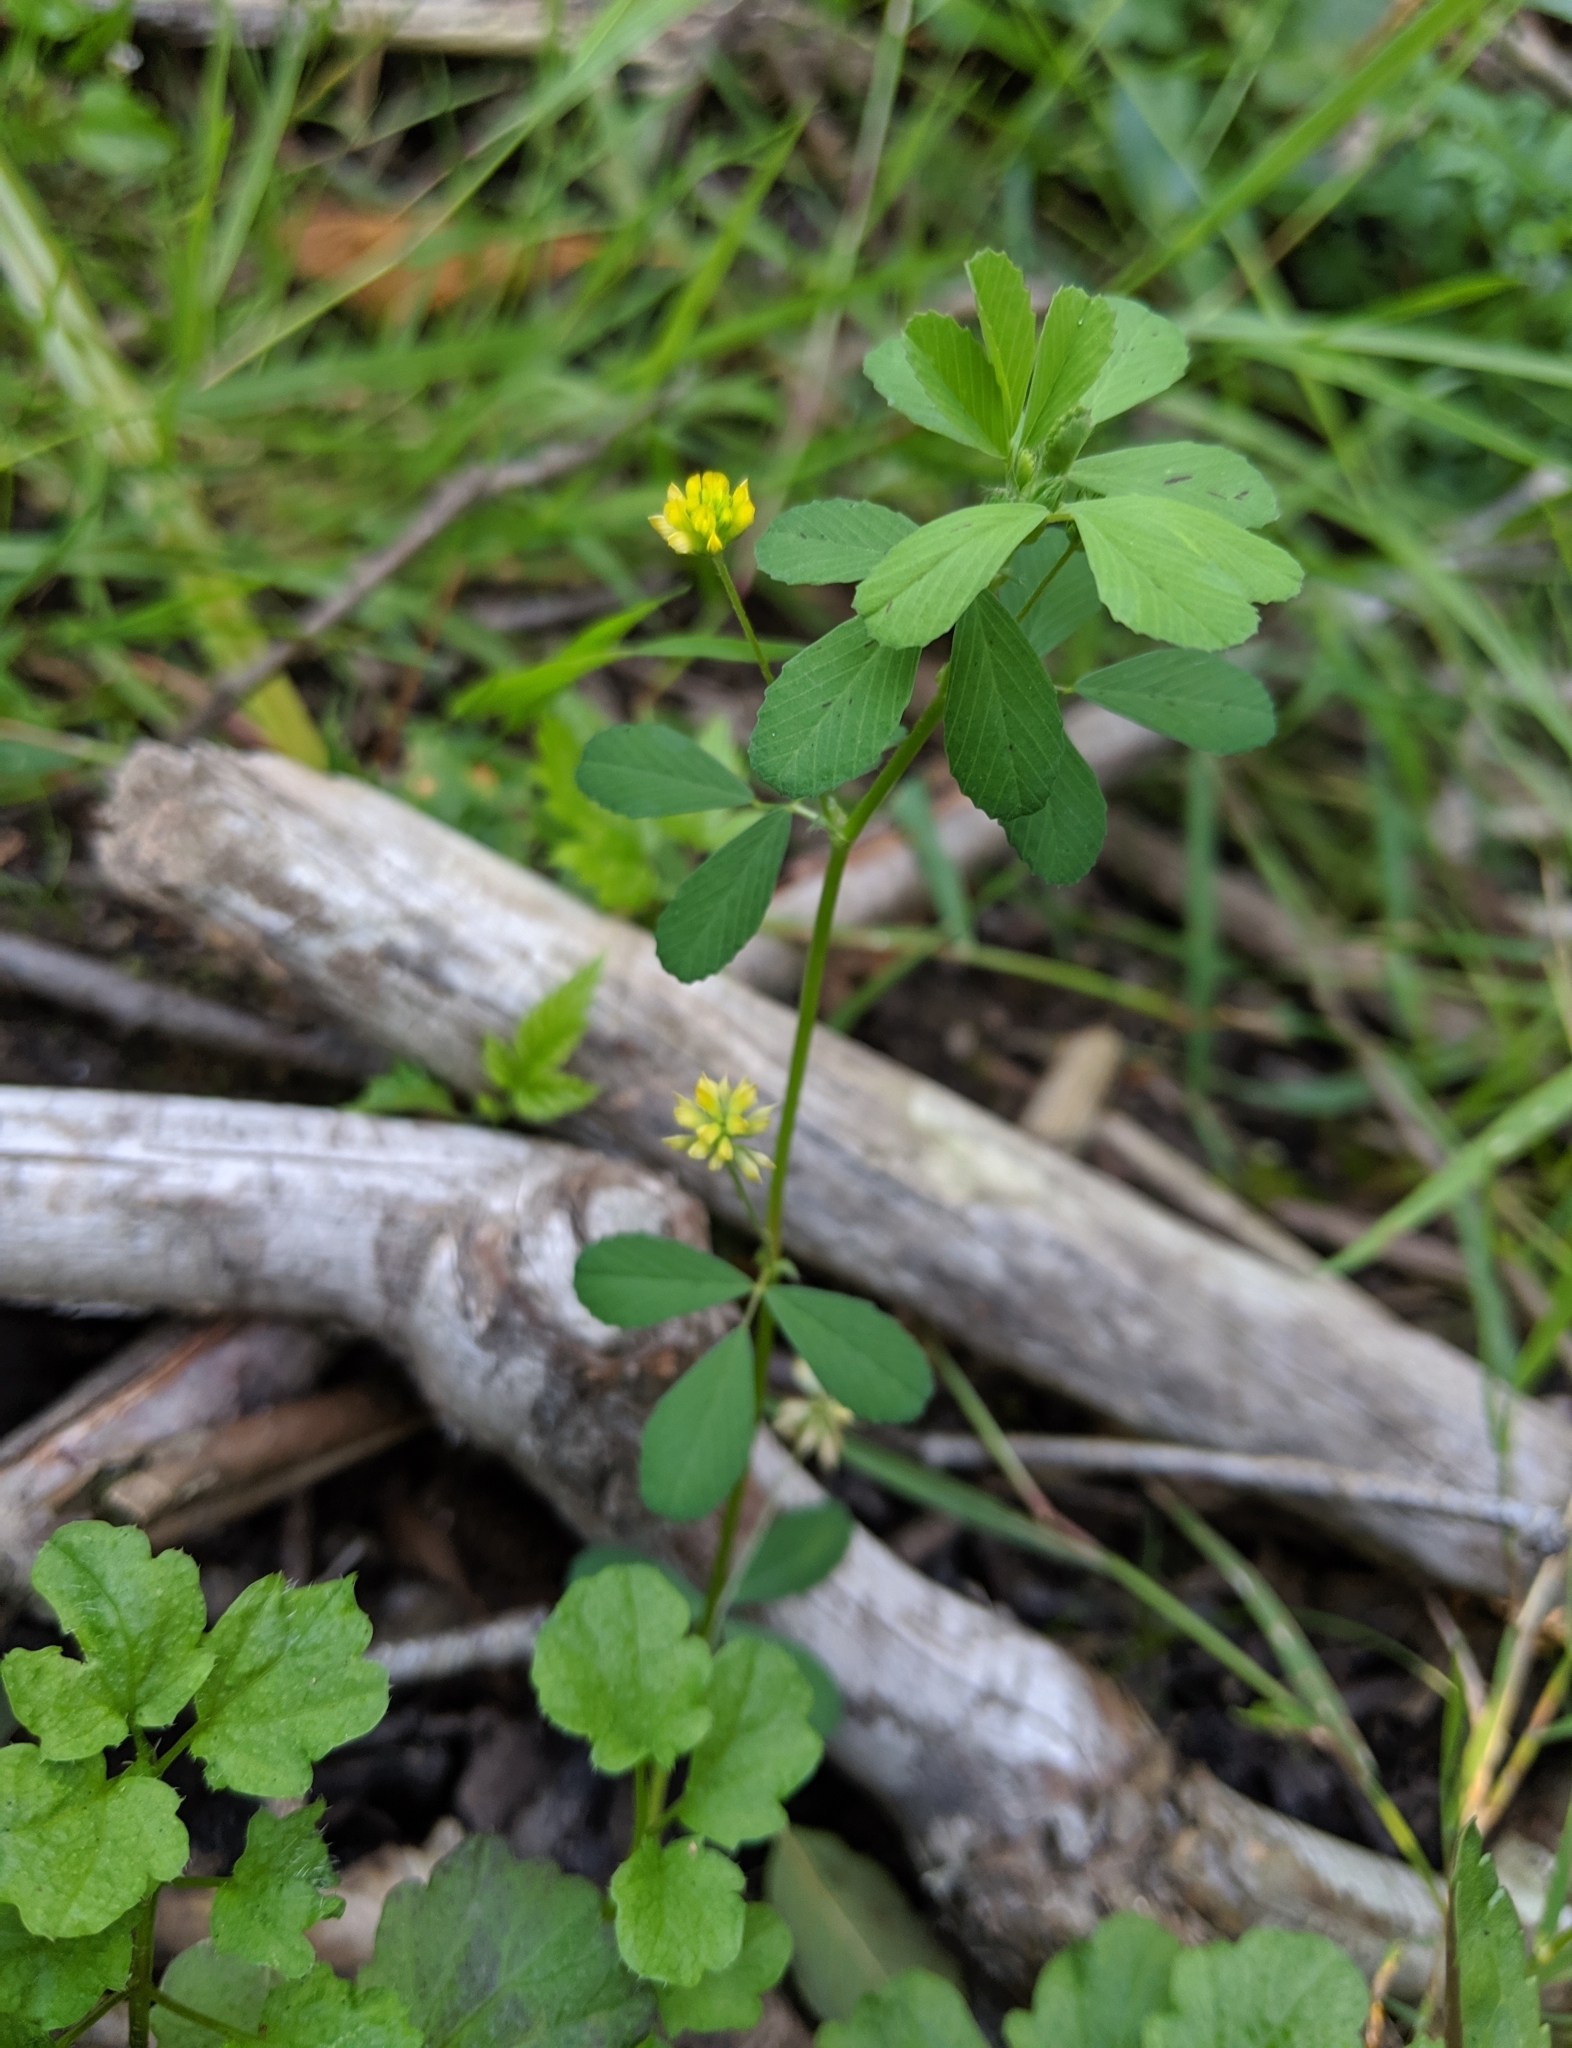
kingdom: Plantae
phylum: Tracheophyta
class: Magnoliopsida
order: Fabales
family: Fabaceae
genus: Trifolium
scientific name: Trifolium dubium
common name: Suckling clover
